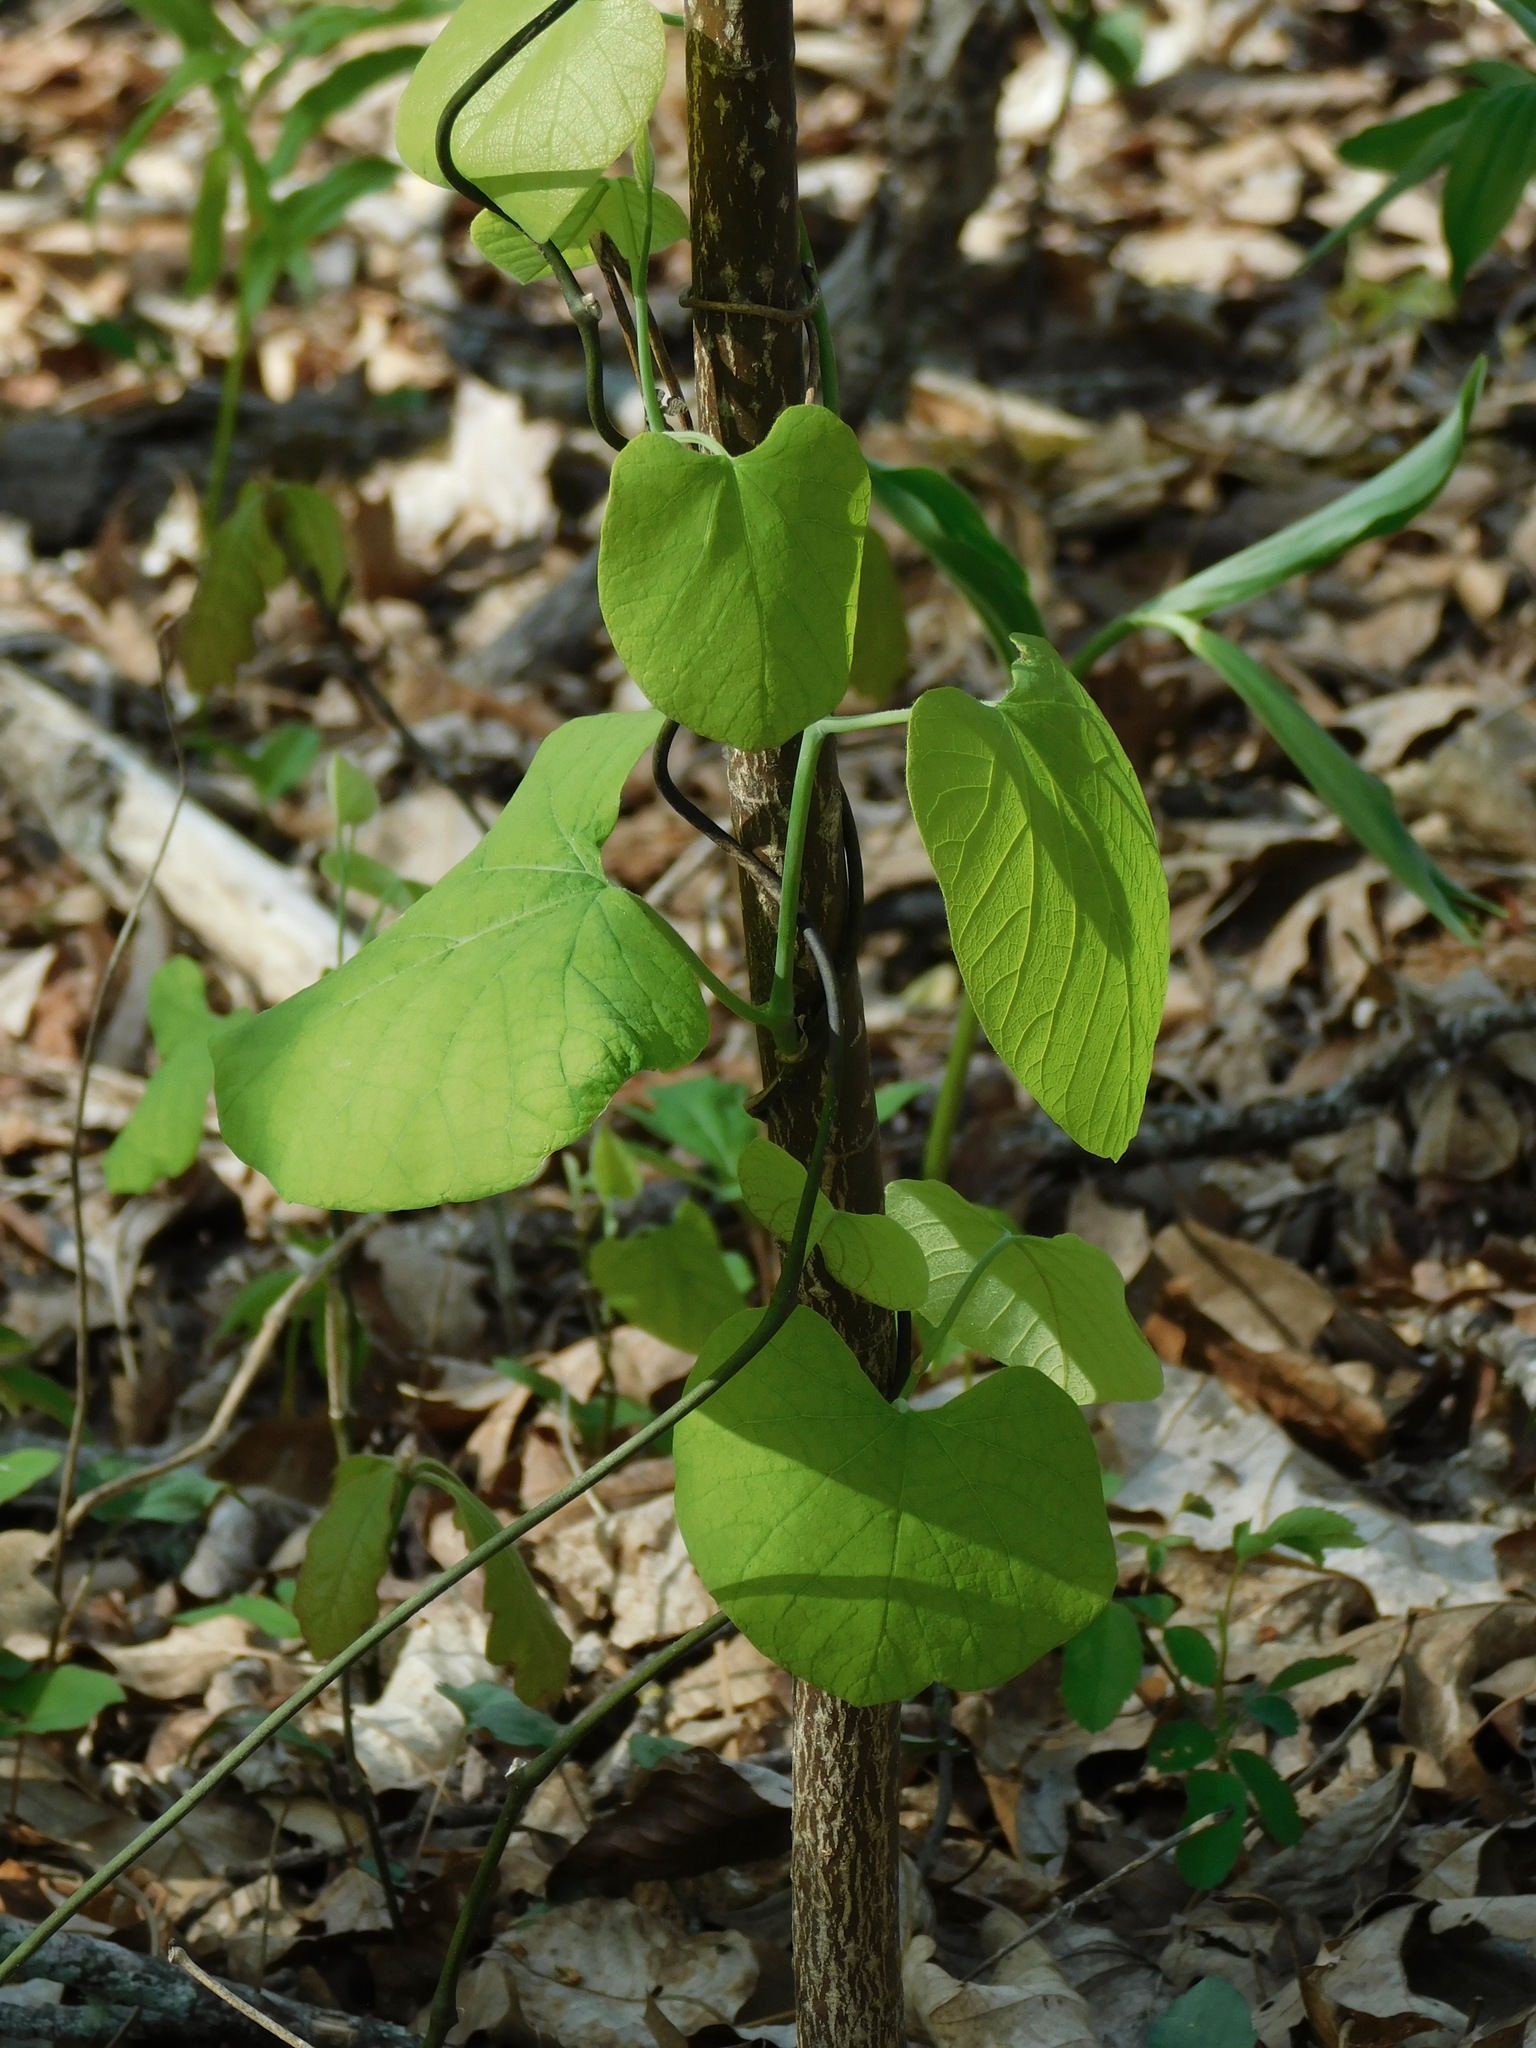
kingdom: Plantae
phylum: Tracheophyta
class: Magnoliopsida
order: Piperales
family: Aristolochiaceae
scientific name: Aristolochiaceae
